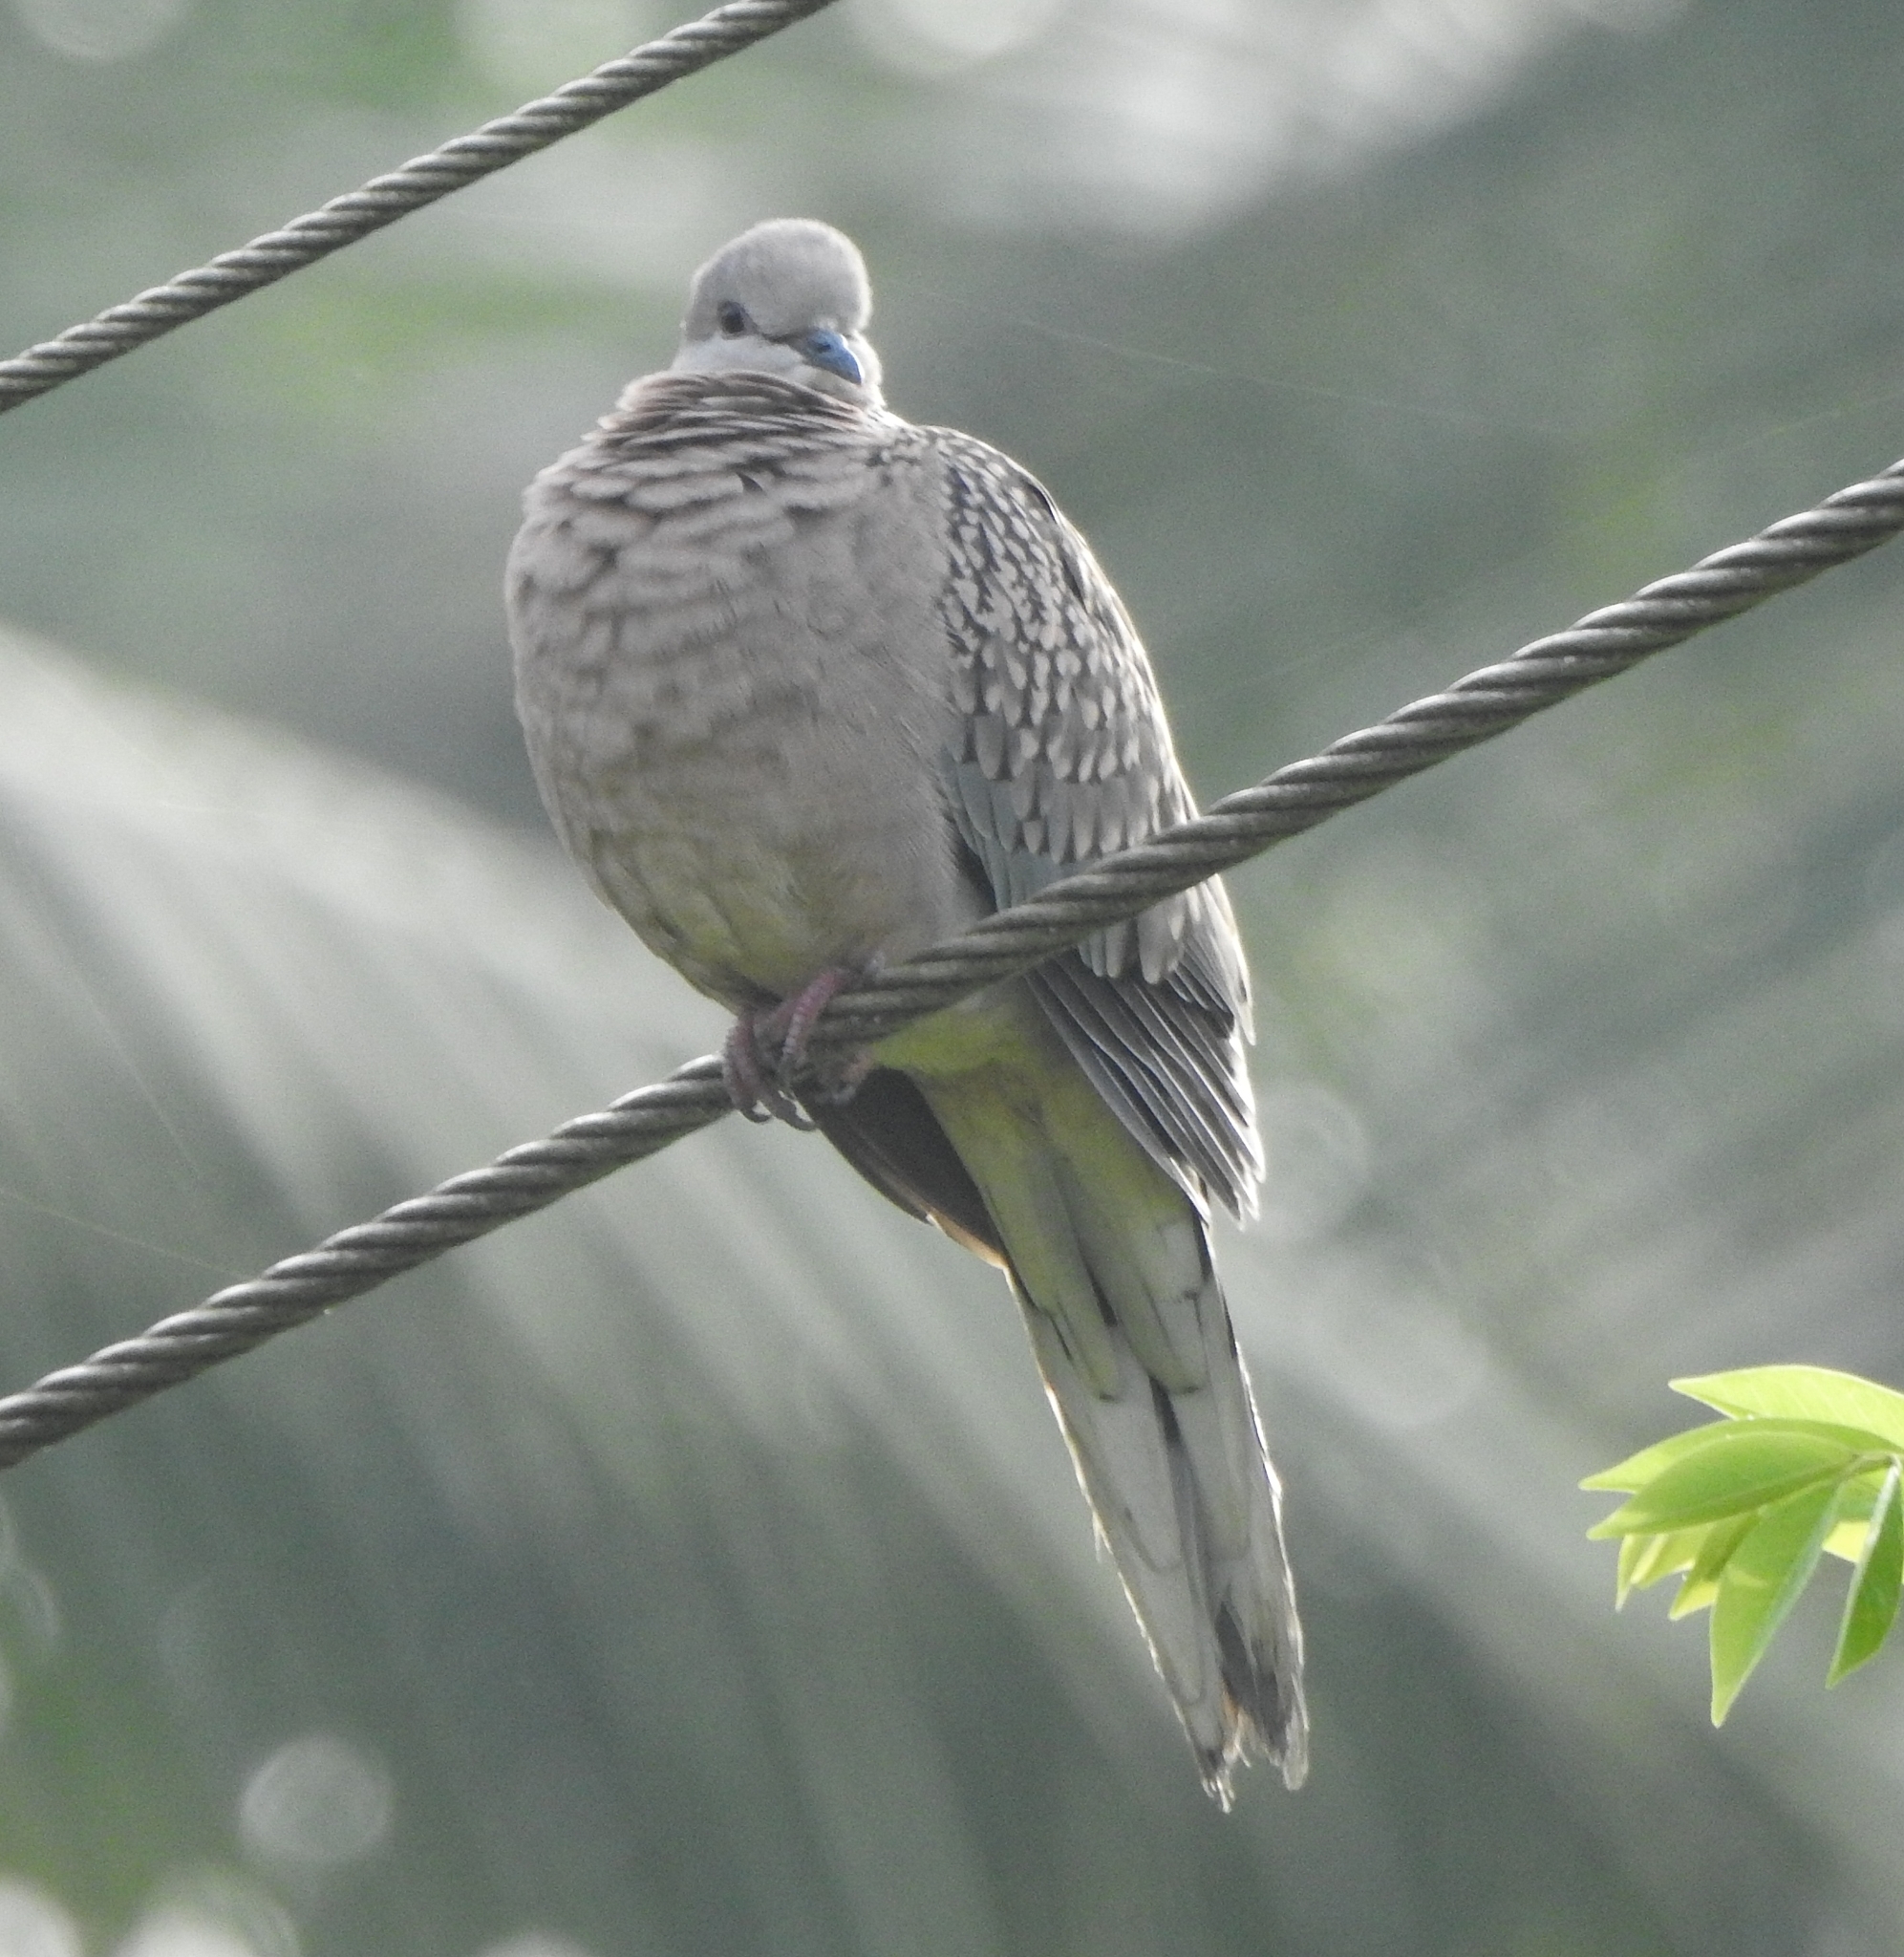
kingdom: Animalia
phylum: Chordata
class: Aves
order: Columbiformes
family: Columbidae
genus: Spilopelia
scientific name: Spilopelia chinensis
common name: Spotted dove
